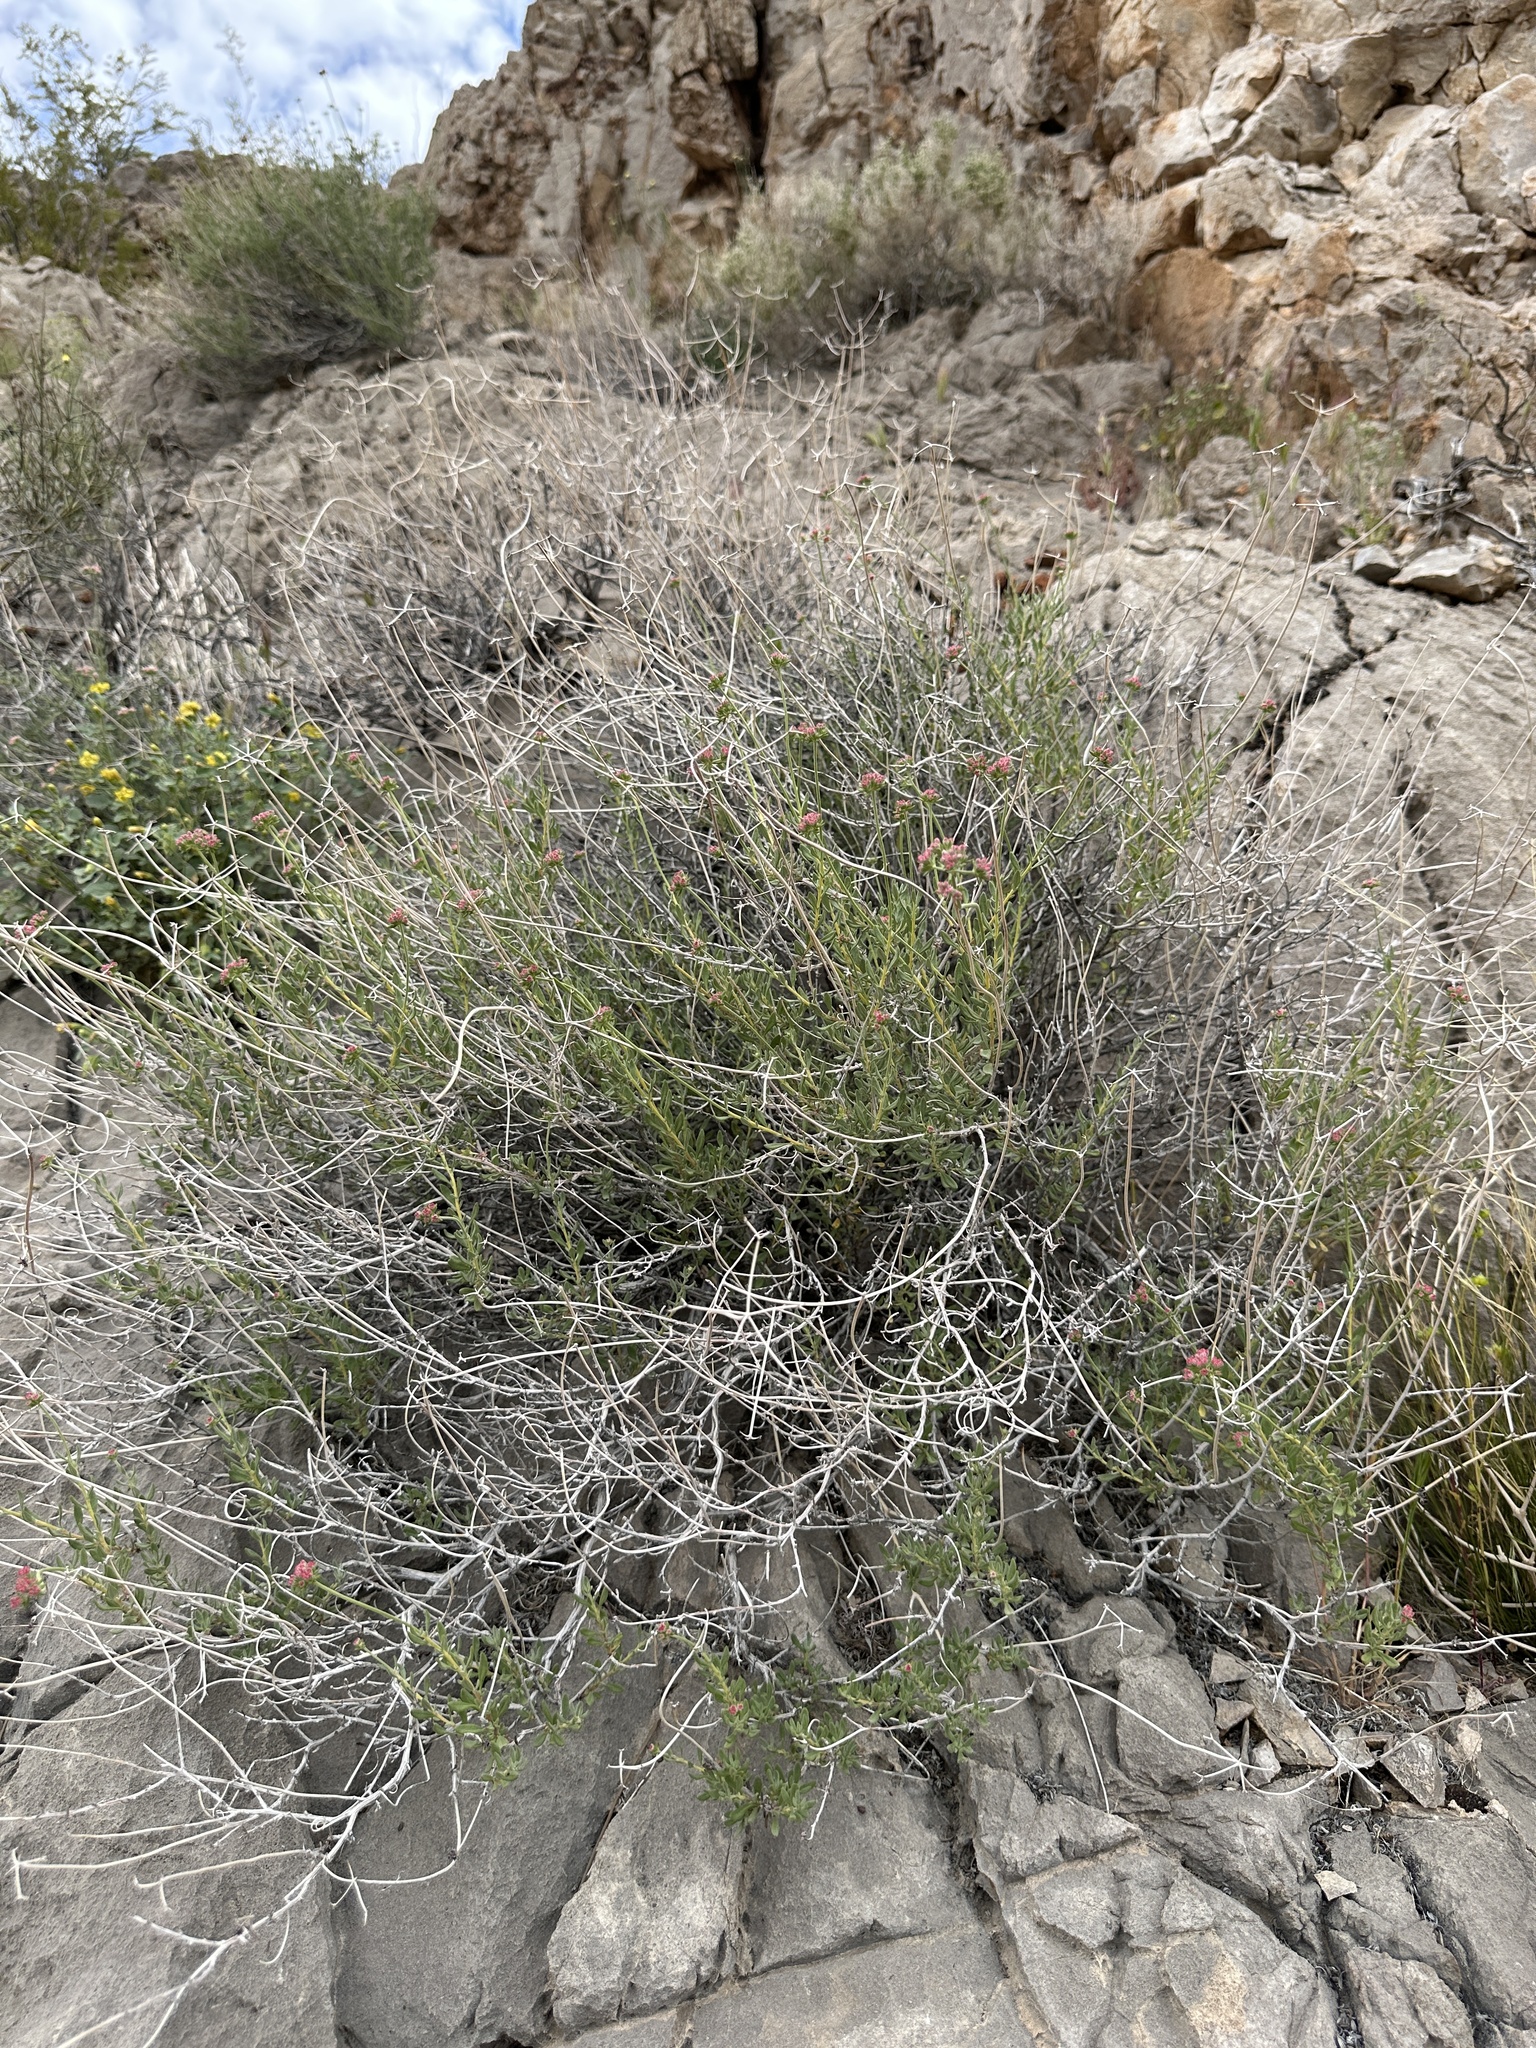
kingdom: Plantae
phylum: Tracheophyta
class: Magnoliopsida
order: Caryophyllales
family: Polygonaceae
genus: Eriogonum
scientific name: Eriogonum fasciculatum
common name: California wild buckwheat
